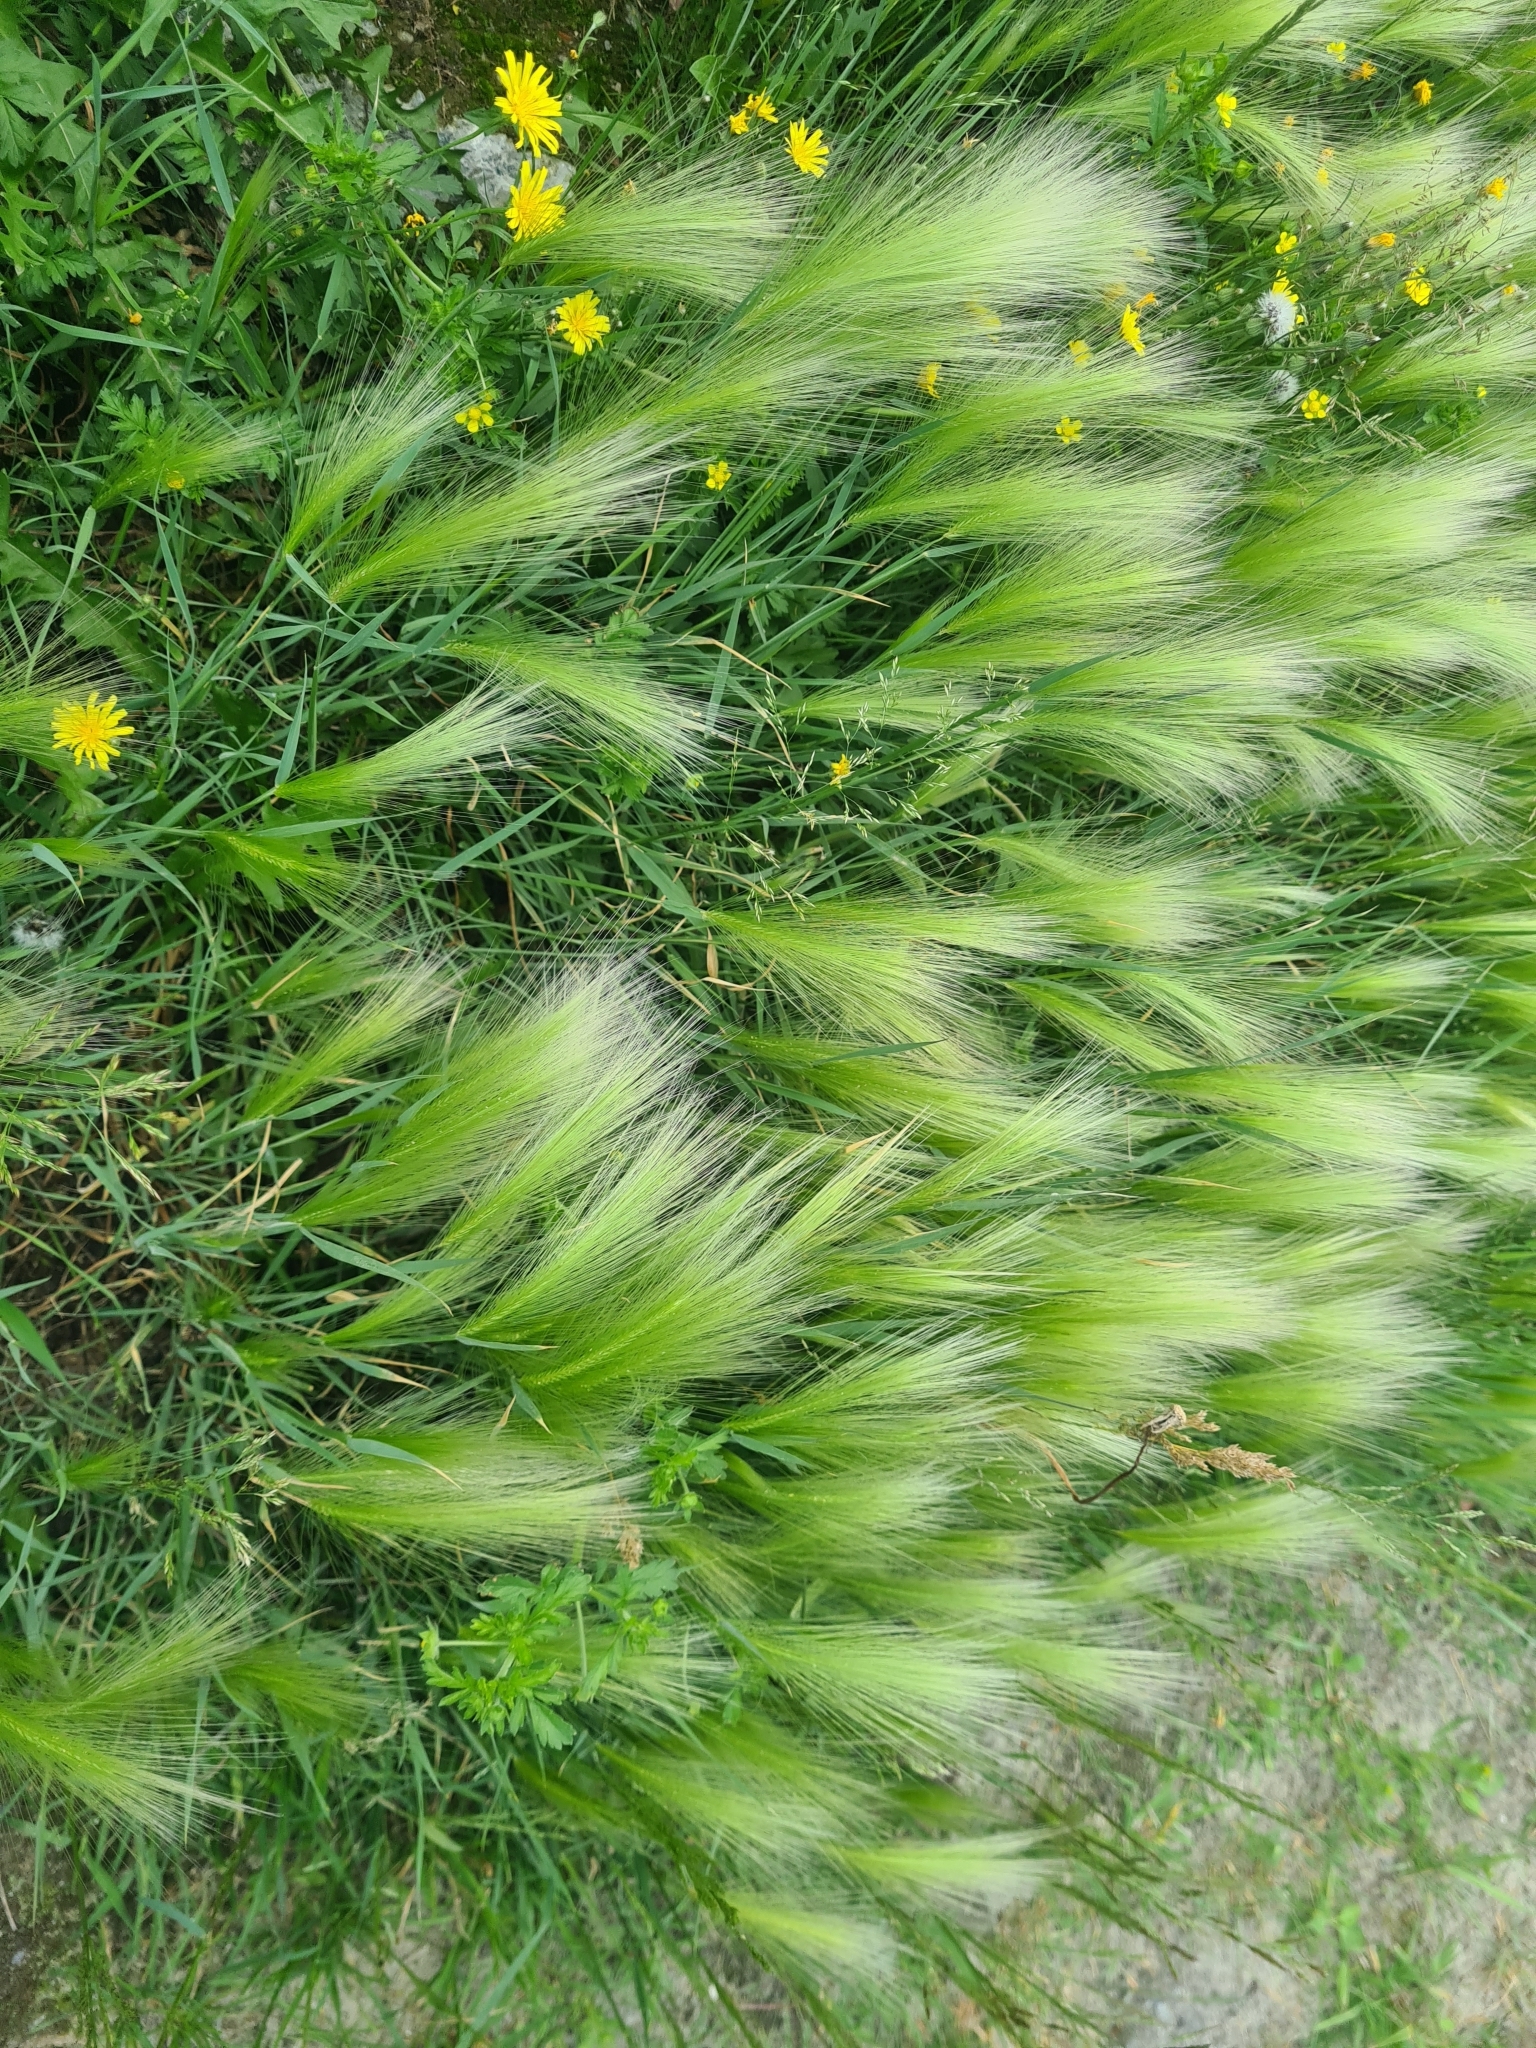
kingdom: Plantae
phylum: Tracheophyta
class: Liliopsida
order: Poales
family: Poaceae
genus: Hordeum
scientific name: Hordeum jubatum
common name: Foxtail barley
